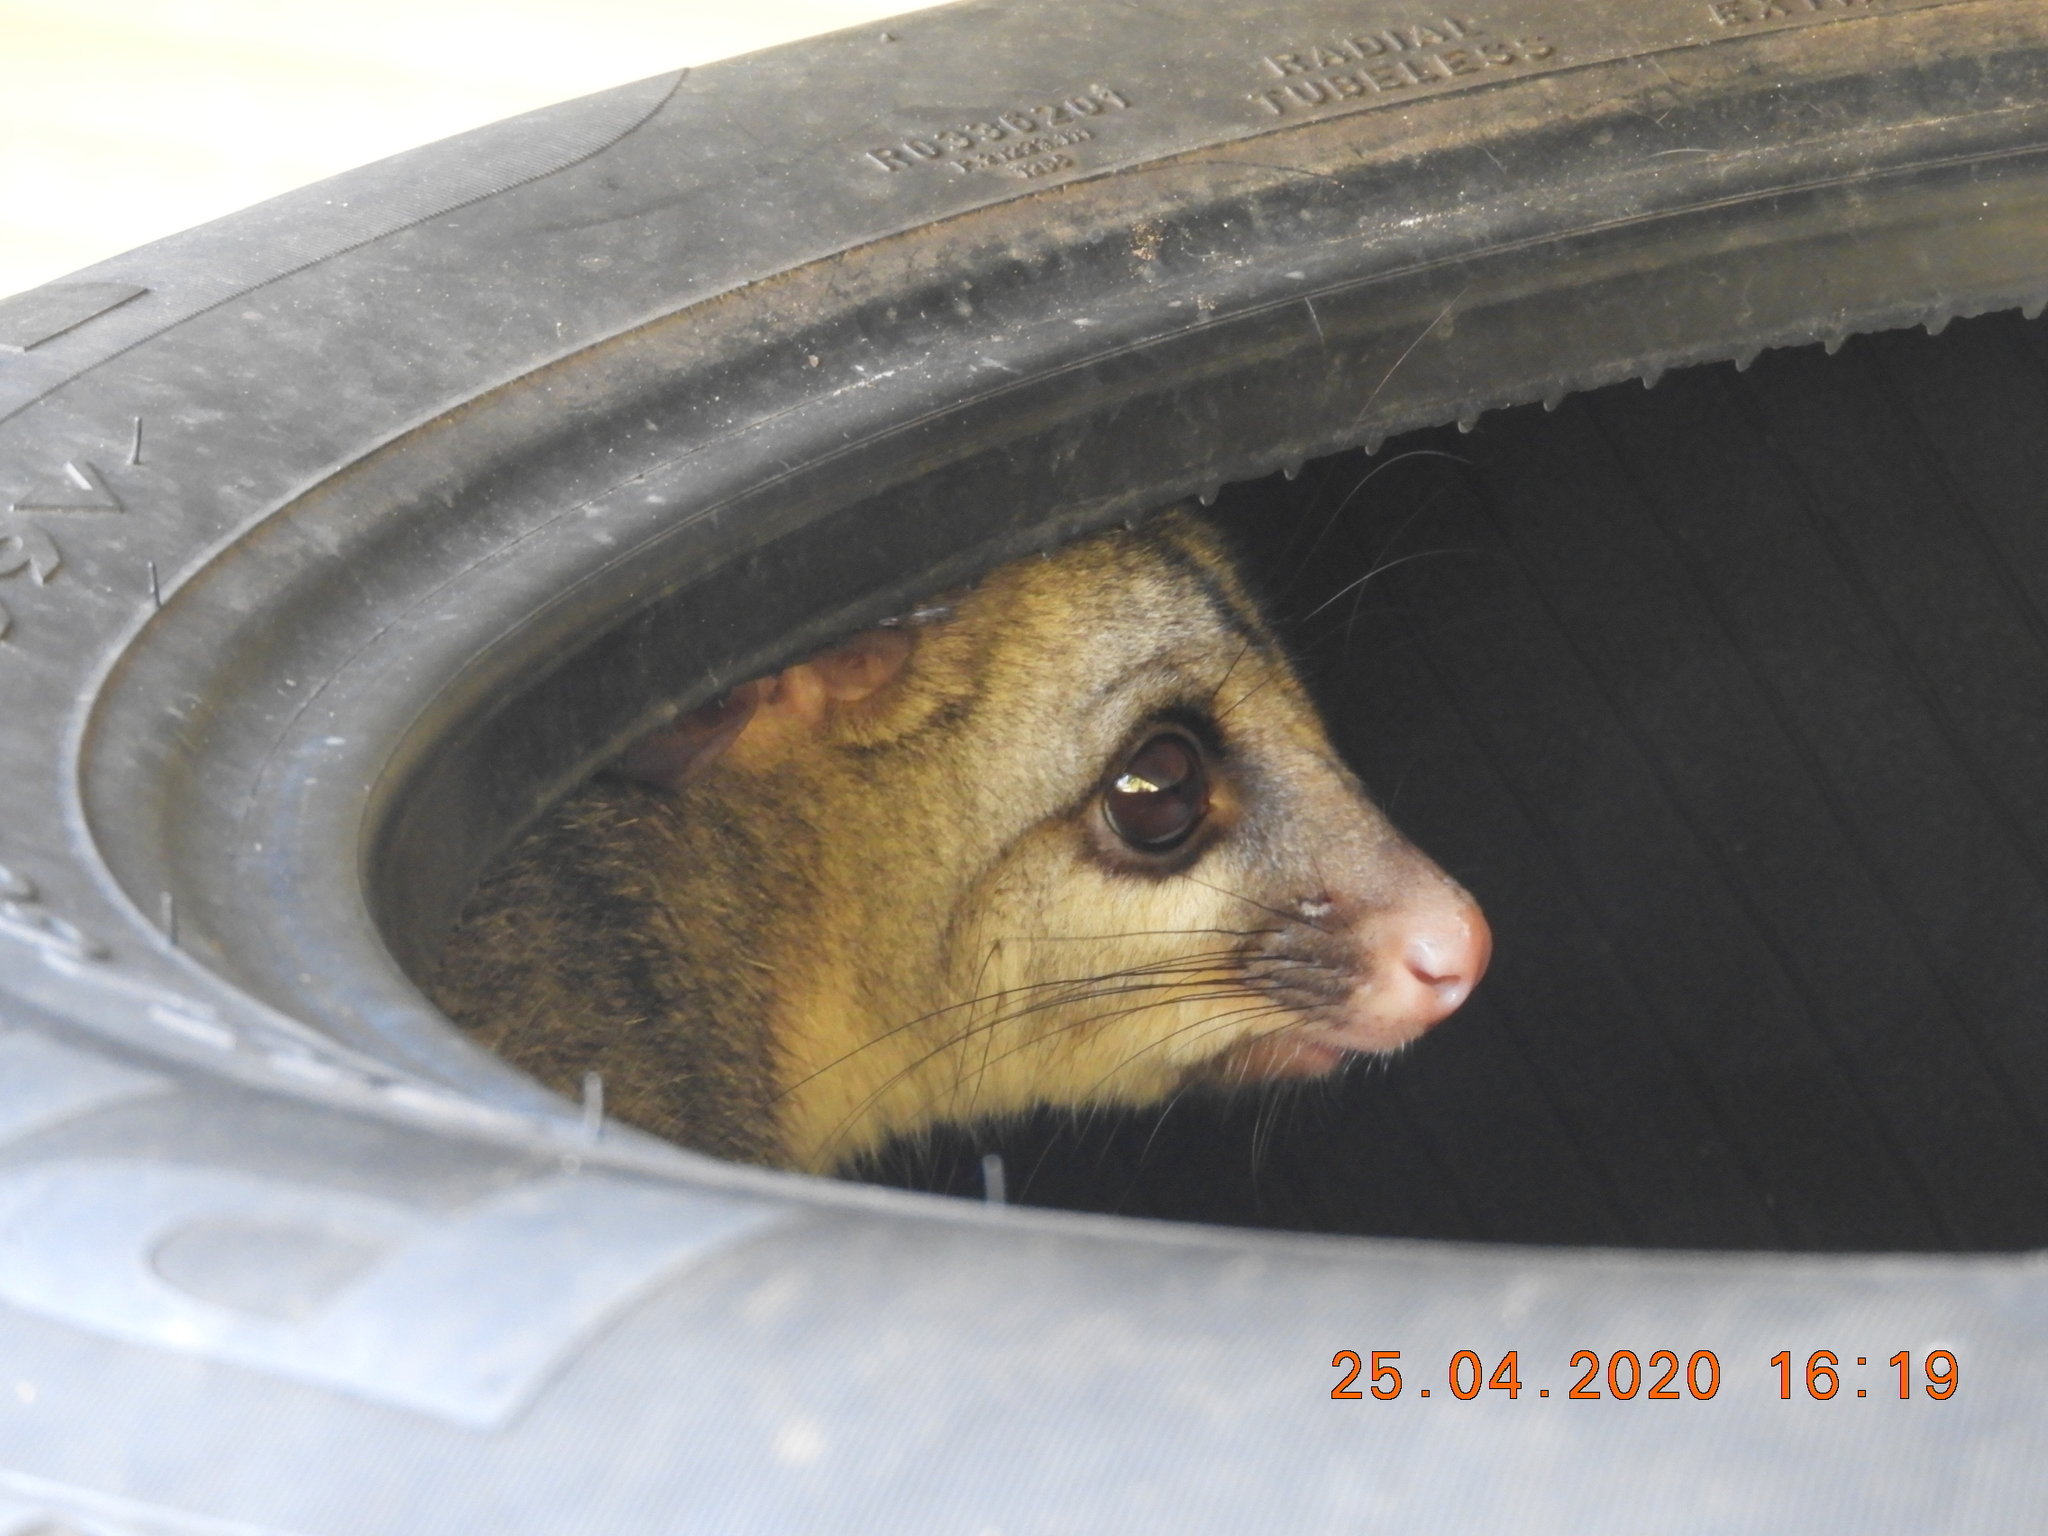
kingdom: Animalia
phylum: Chordata
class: Mammalia
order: Diprotodontia
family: Phalangeridae
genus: Trichosurus
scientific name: Trichosurus vulpecula
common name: Common brushtail
